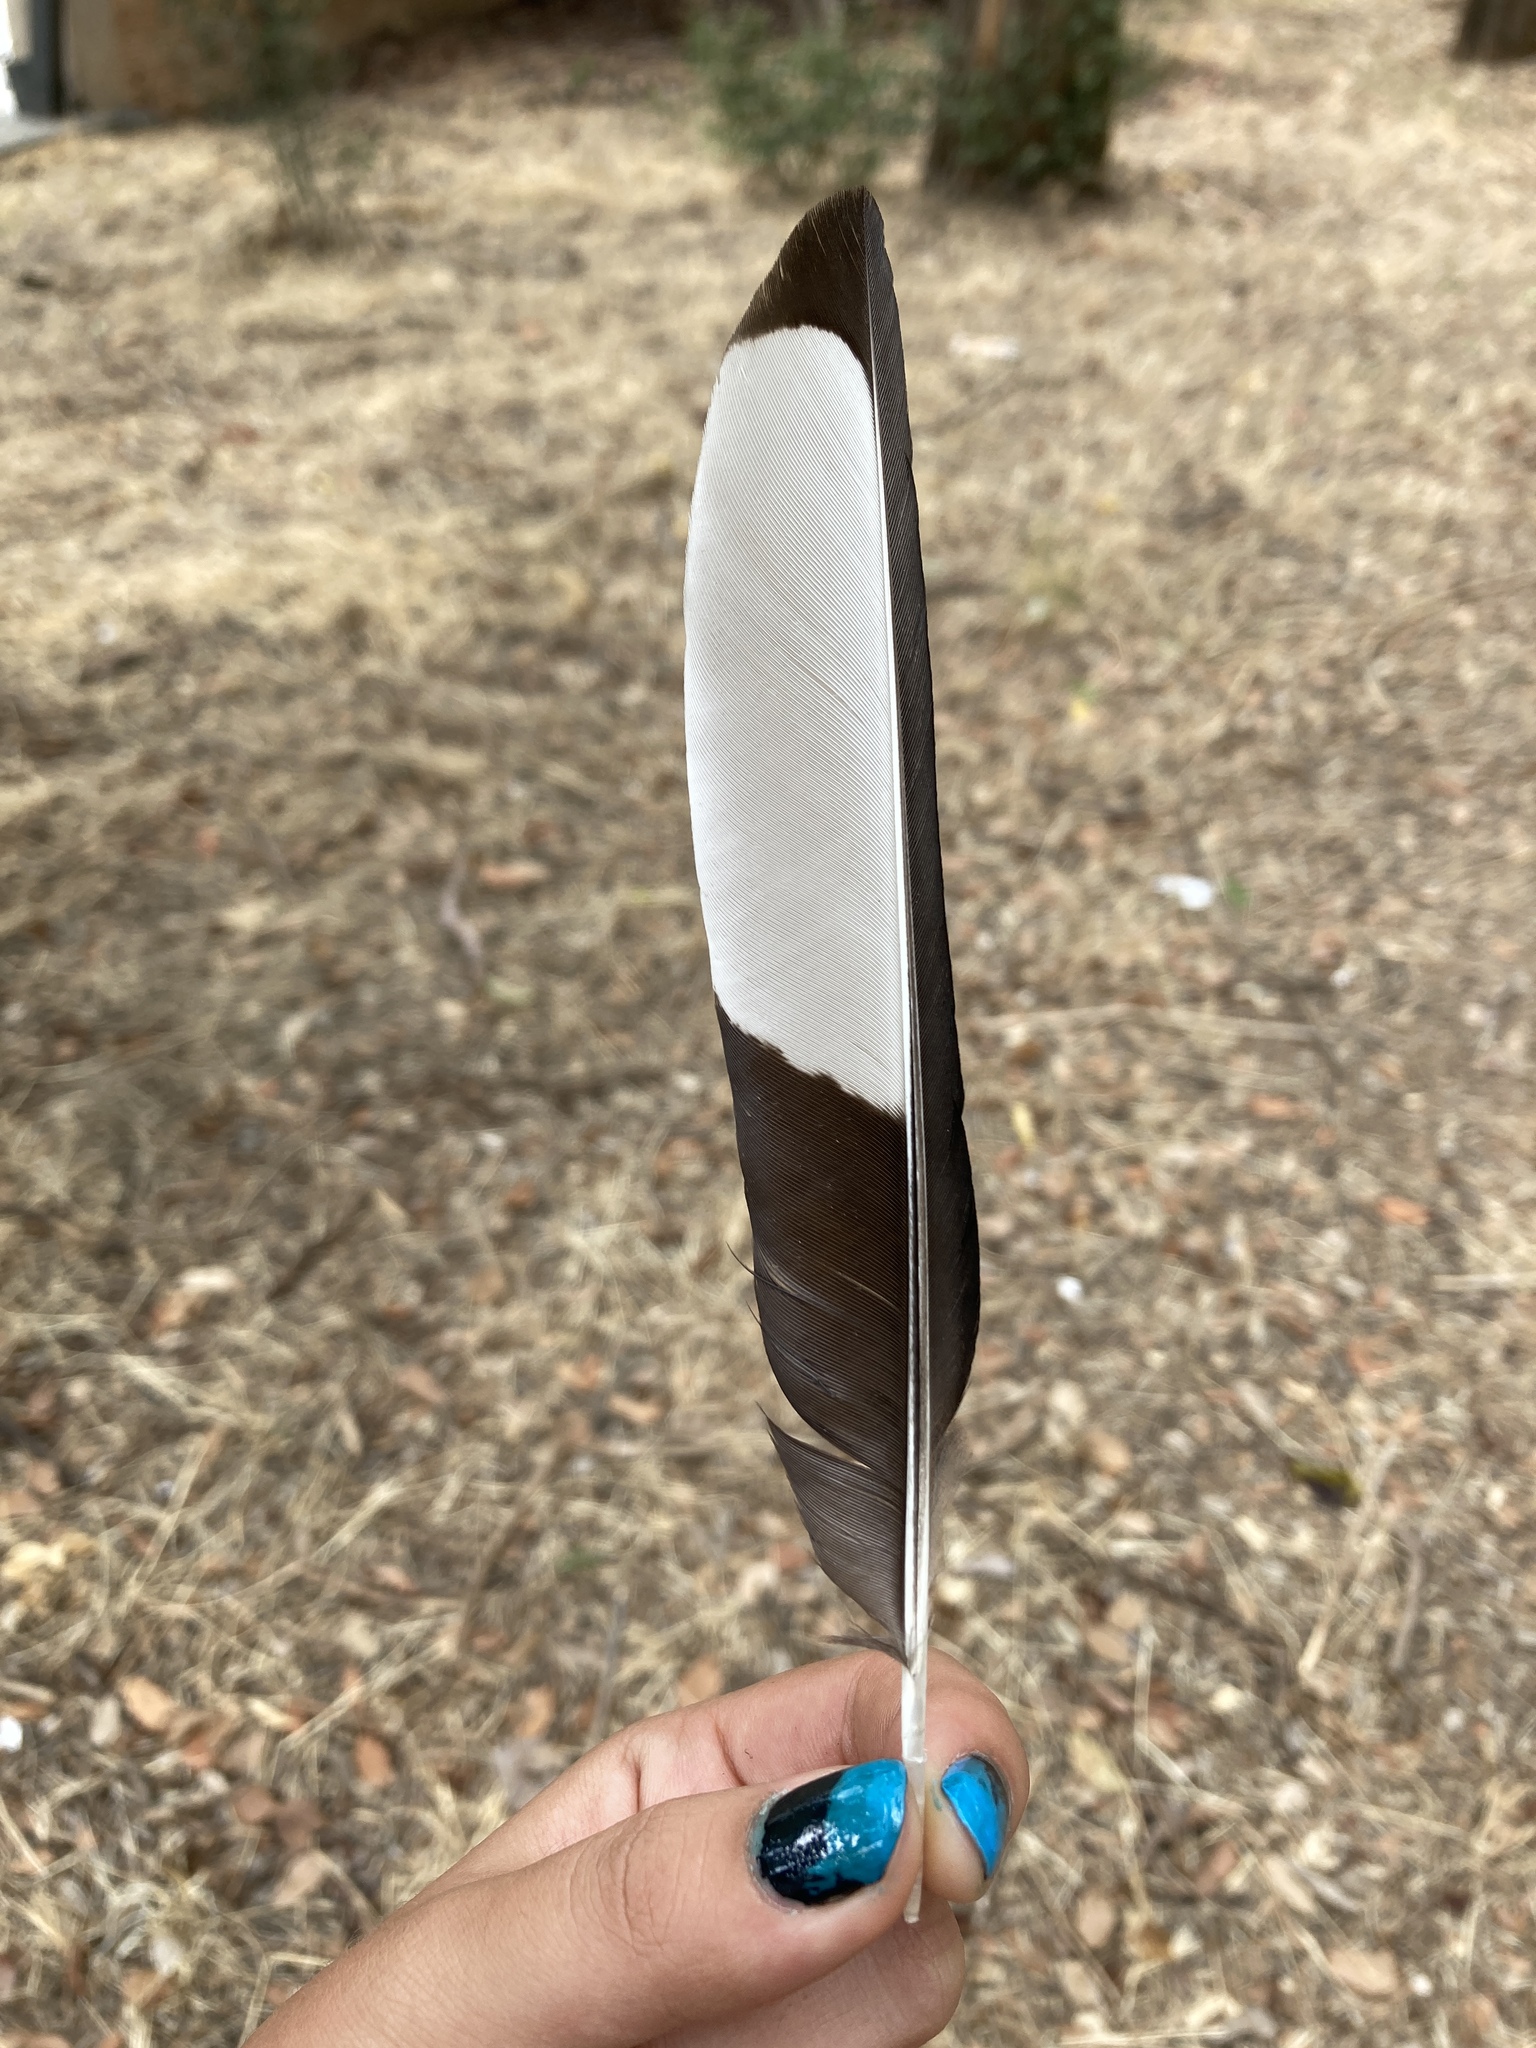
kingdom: Animalia
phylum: Chordata
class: Aves
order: Passeriformes
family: Corvidae
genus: Pica
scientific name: Pica pica
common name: Eurasian magpie
